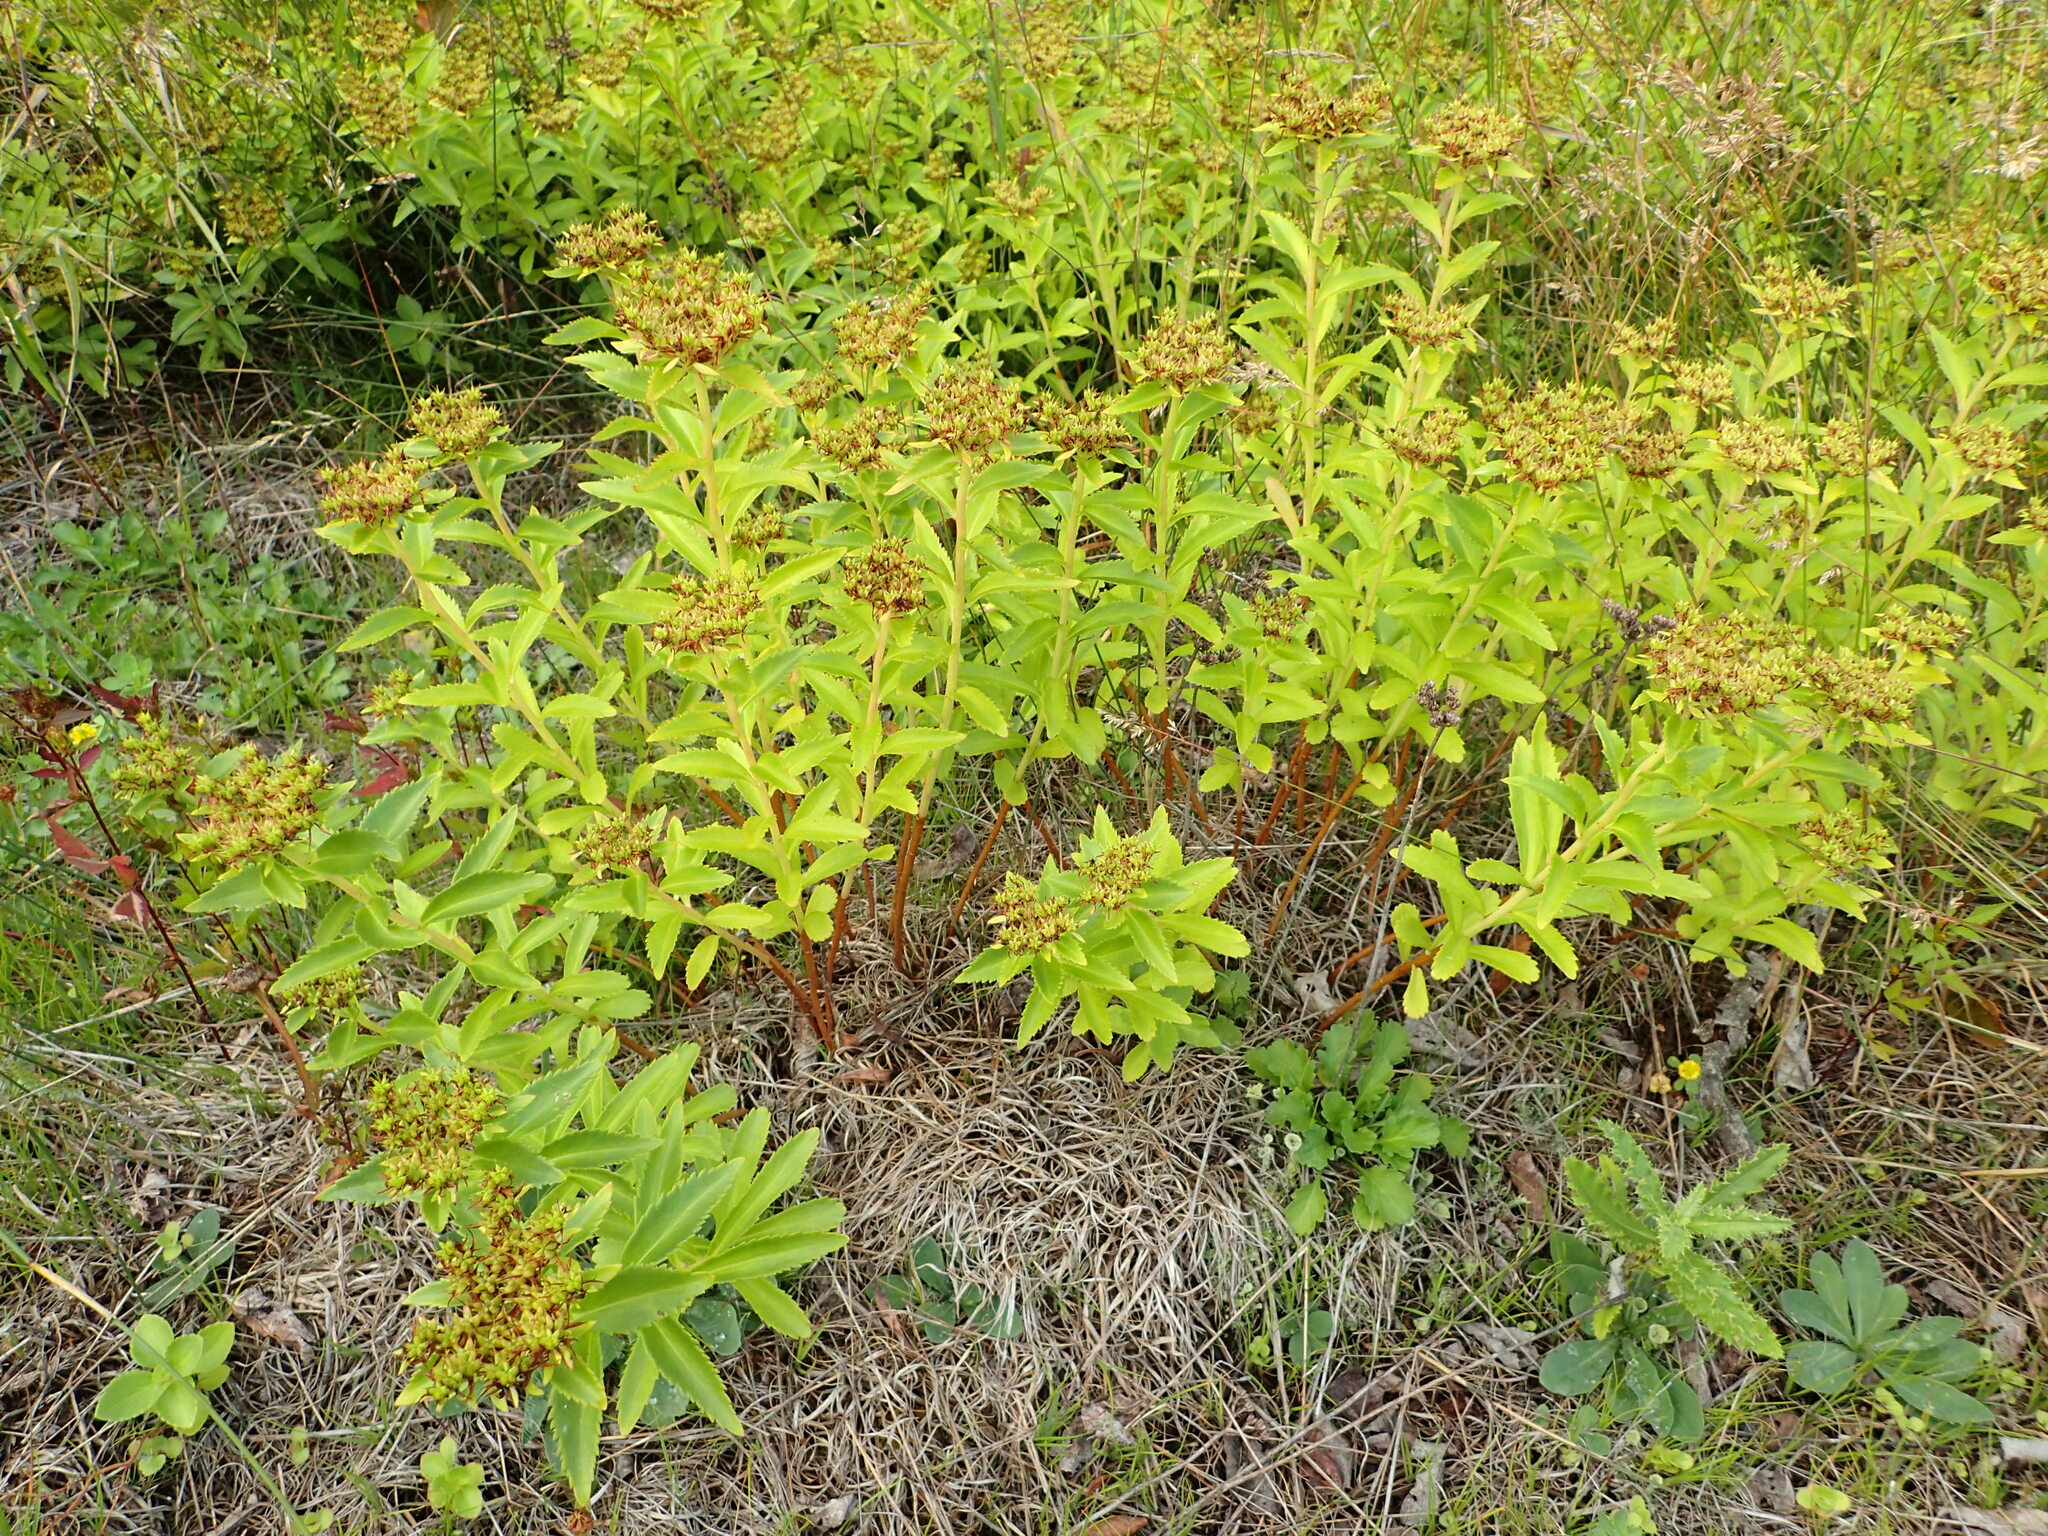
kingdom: Plantae
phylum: Tracheophyta
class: Magnoliopsida
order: Saxifragales
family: Crassulaceae
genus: Phedimus
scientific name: Phedimus aizoon
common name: Orpin aizoon
